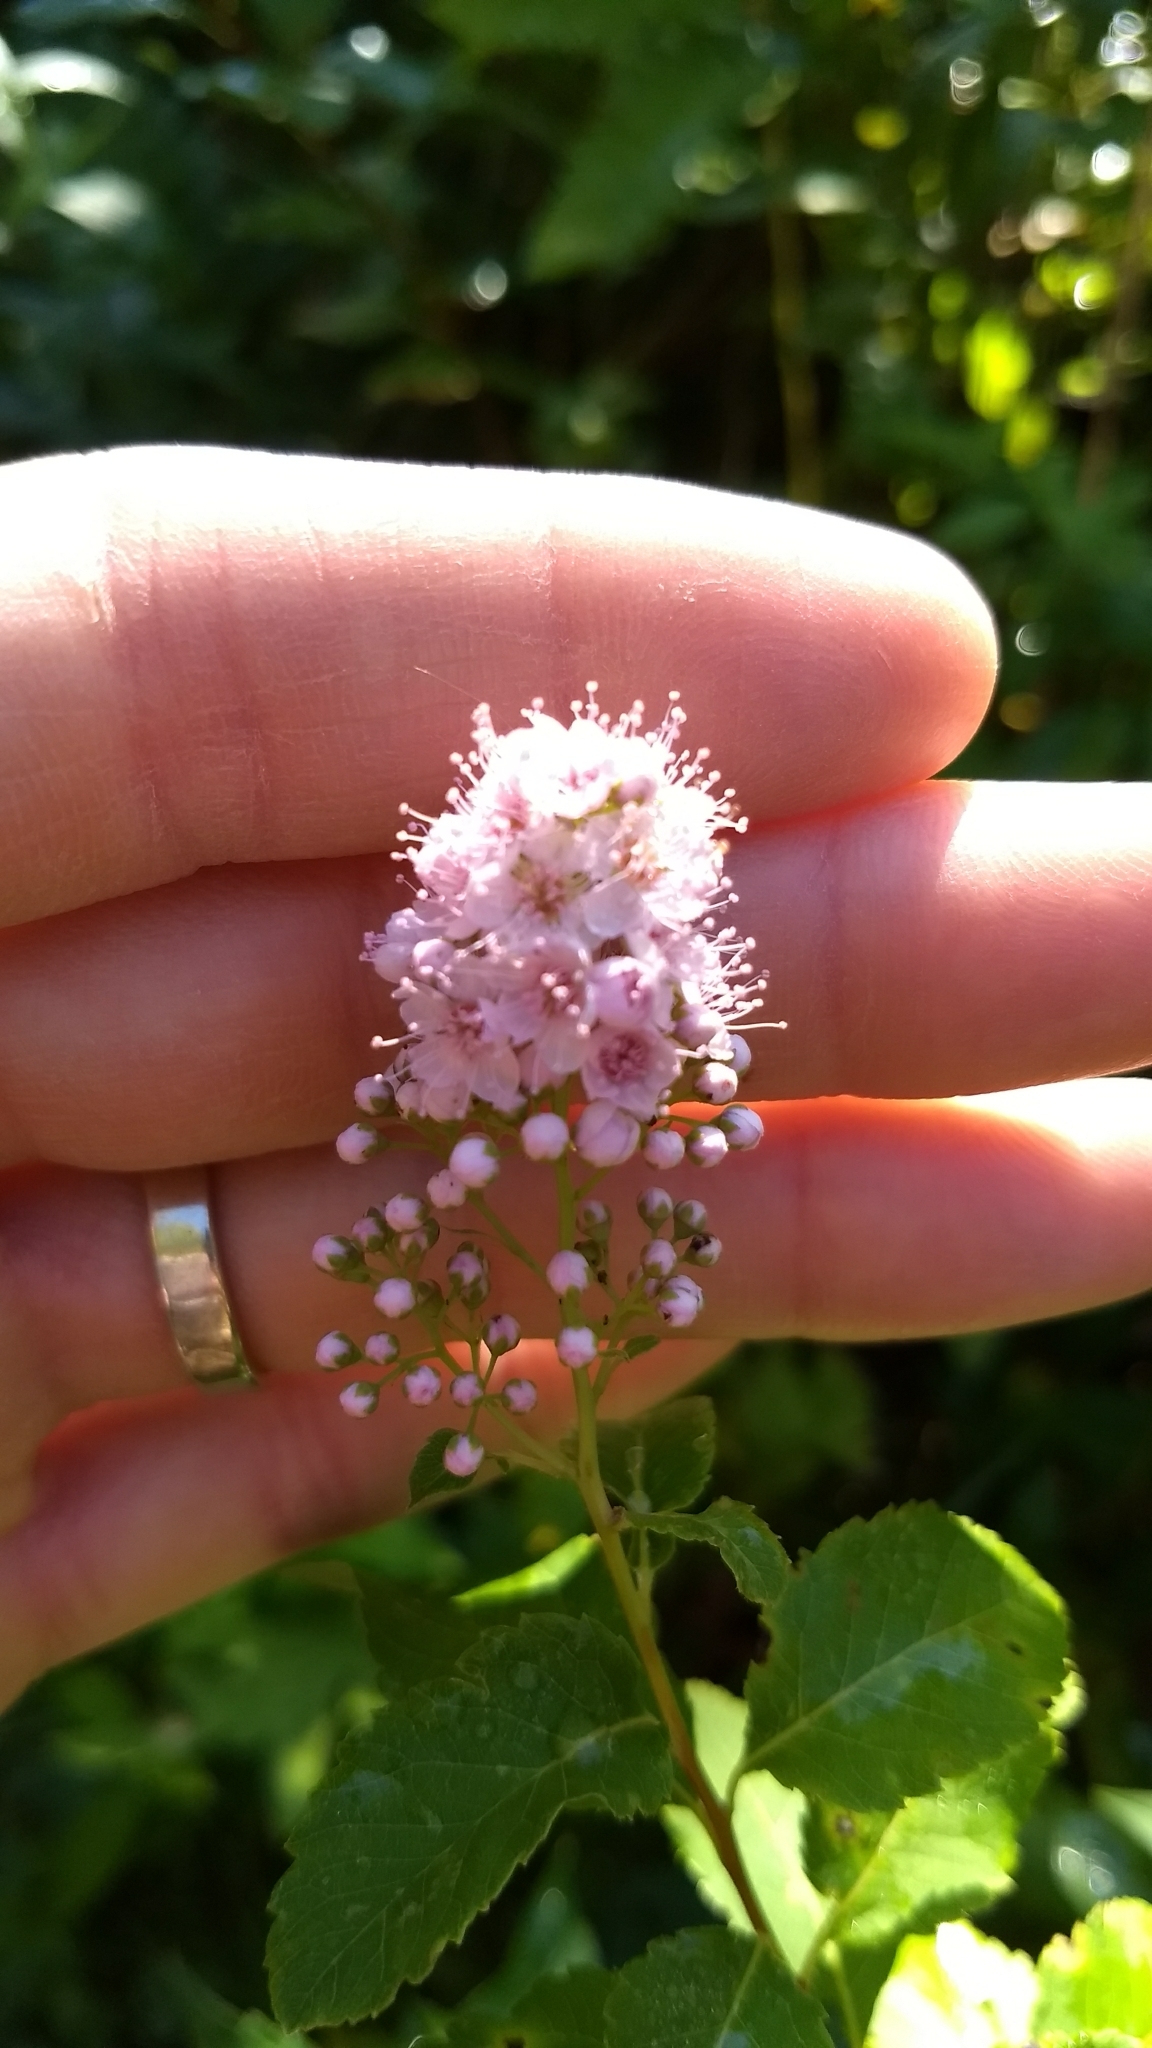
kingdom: Plantae
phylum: Tracheophyta
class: Magnoliopsida
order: Rosales
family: Rosaceae
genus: Spiraea
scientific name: Spiraea alba
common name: Pale bridewort
